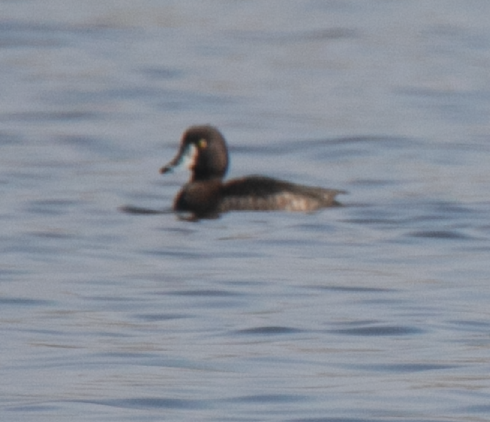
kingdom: Animalia
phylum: Chordata
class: Aves
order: Anseriformes
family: Anatidae
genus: Aythya
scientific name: Aythya fuligula
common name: Tufted duck
